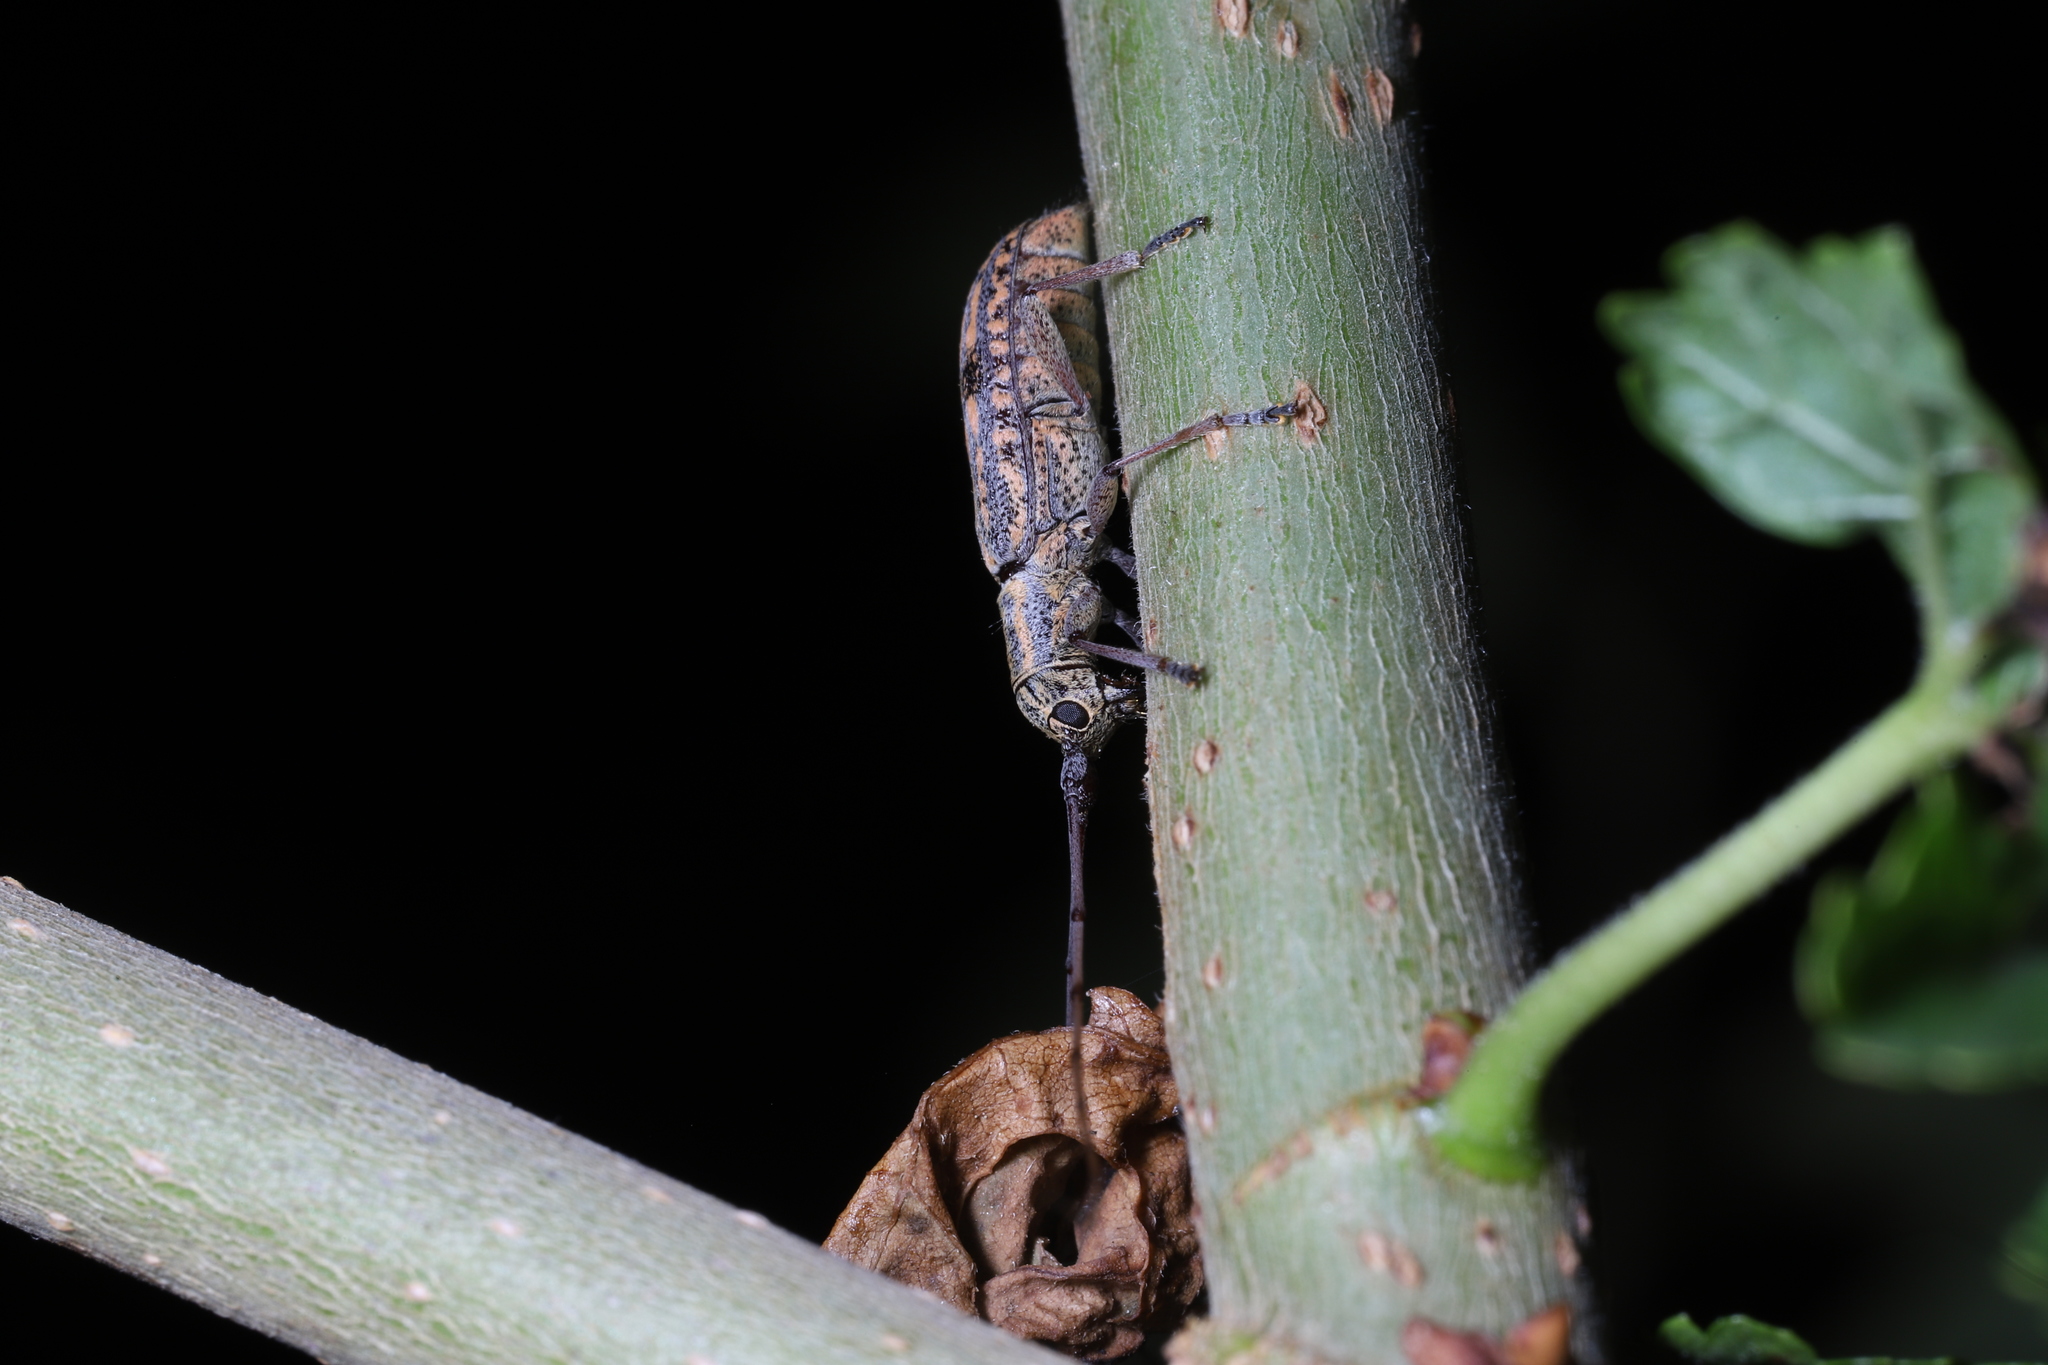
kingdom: Animalia
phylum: Arthropoda
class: Insecta
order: Coleoptera
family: Cerambycidae
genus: Dorcaschema
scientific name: Dorcaschema alternatum
